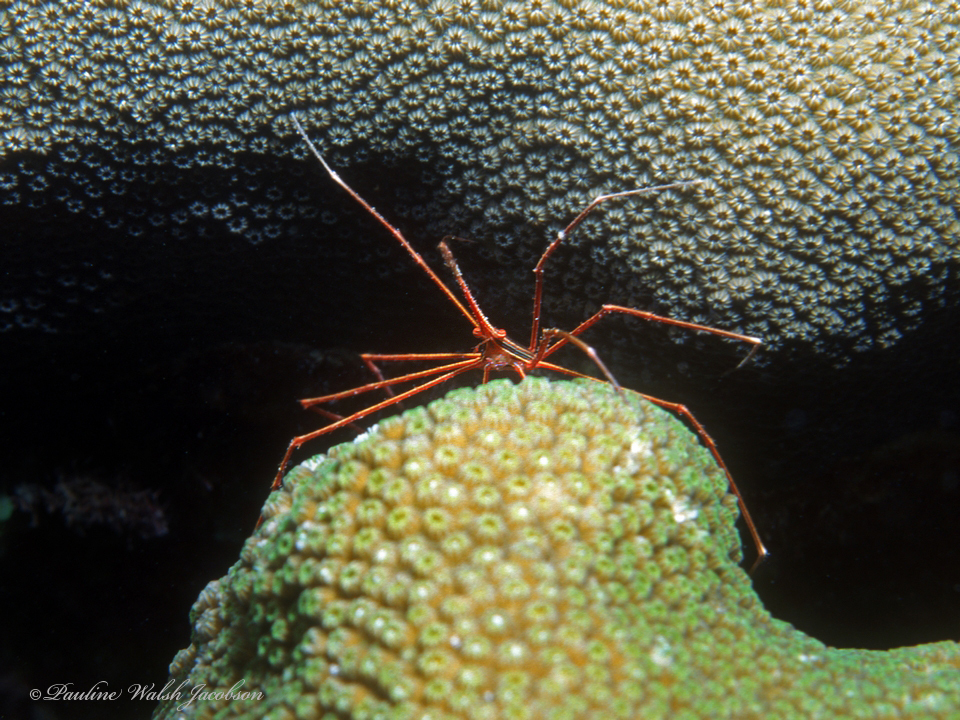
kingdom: Animalia
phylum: Arthropoda
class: Malacostraca
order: Decapoda
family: Inachoididae
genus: Stenorhynchus
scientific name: Stenorhynchus seticornis
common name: Arrow crab
